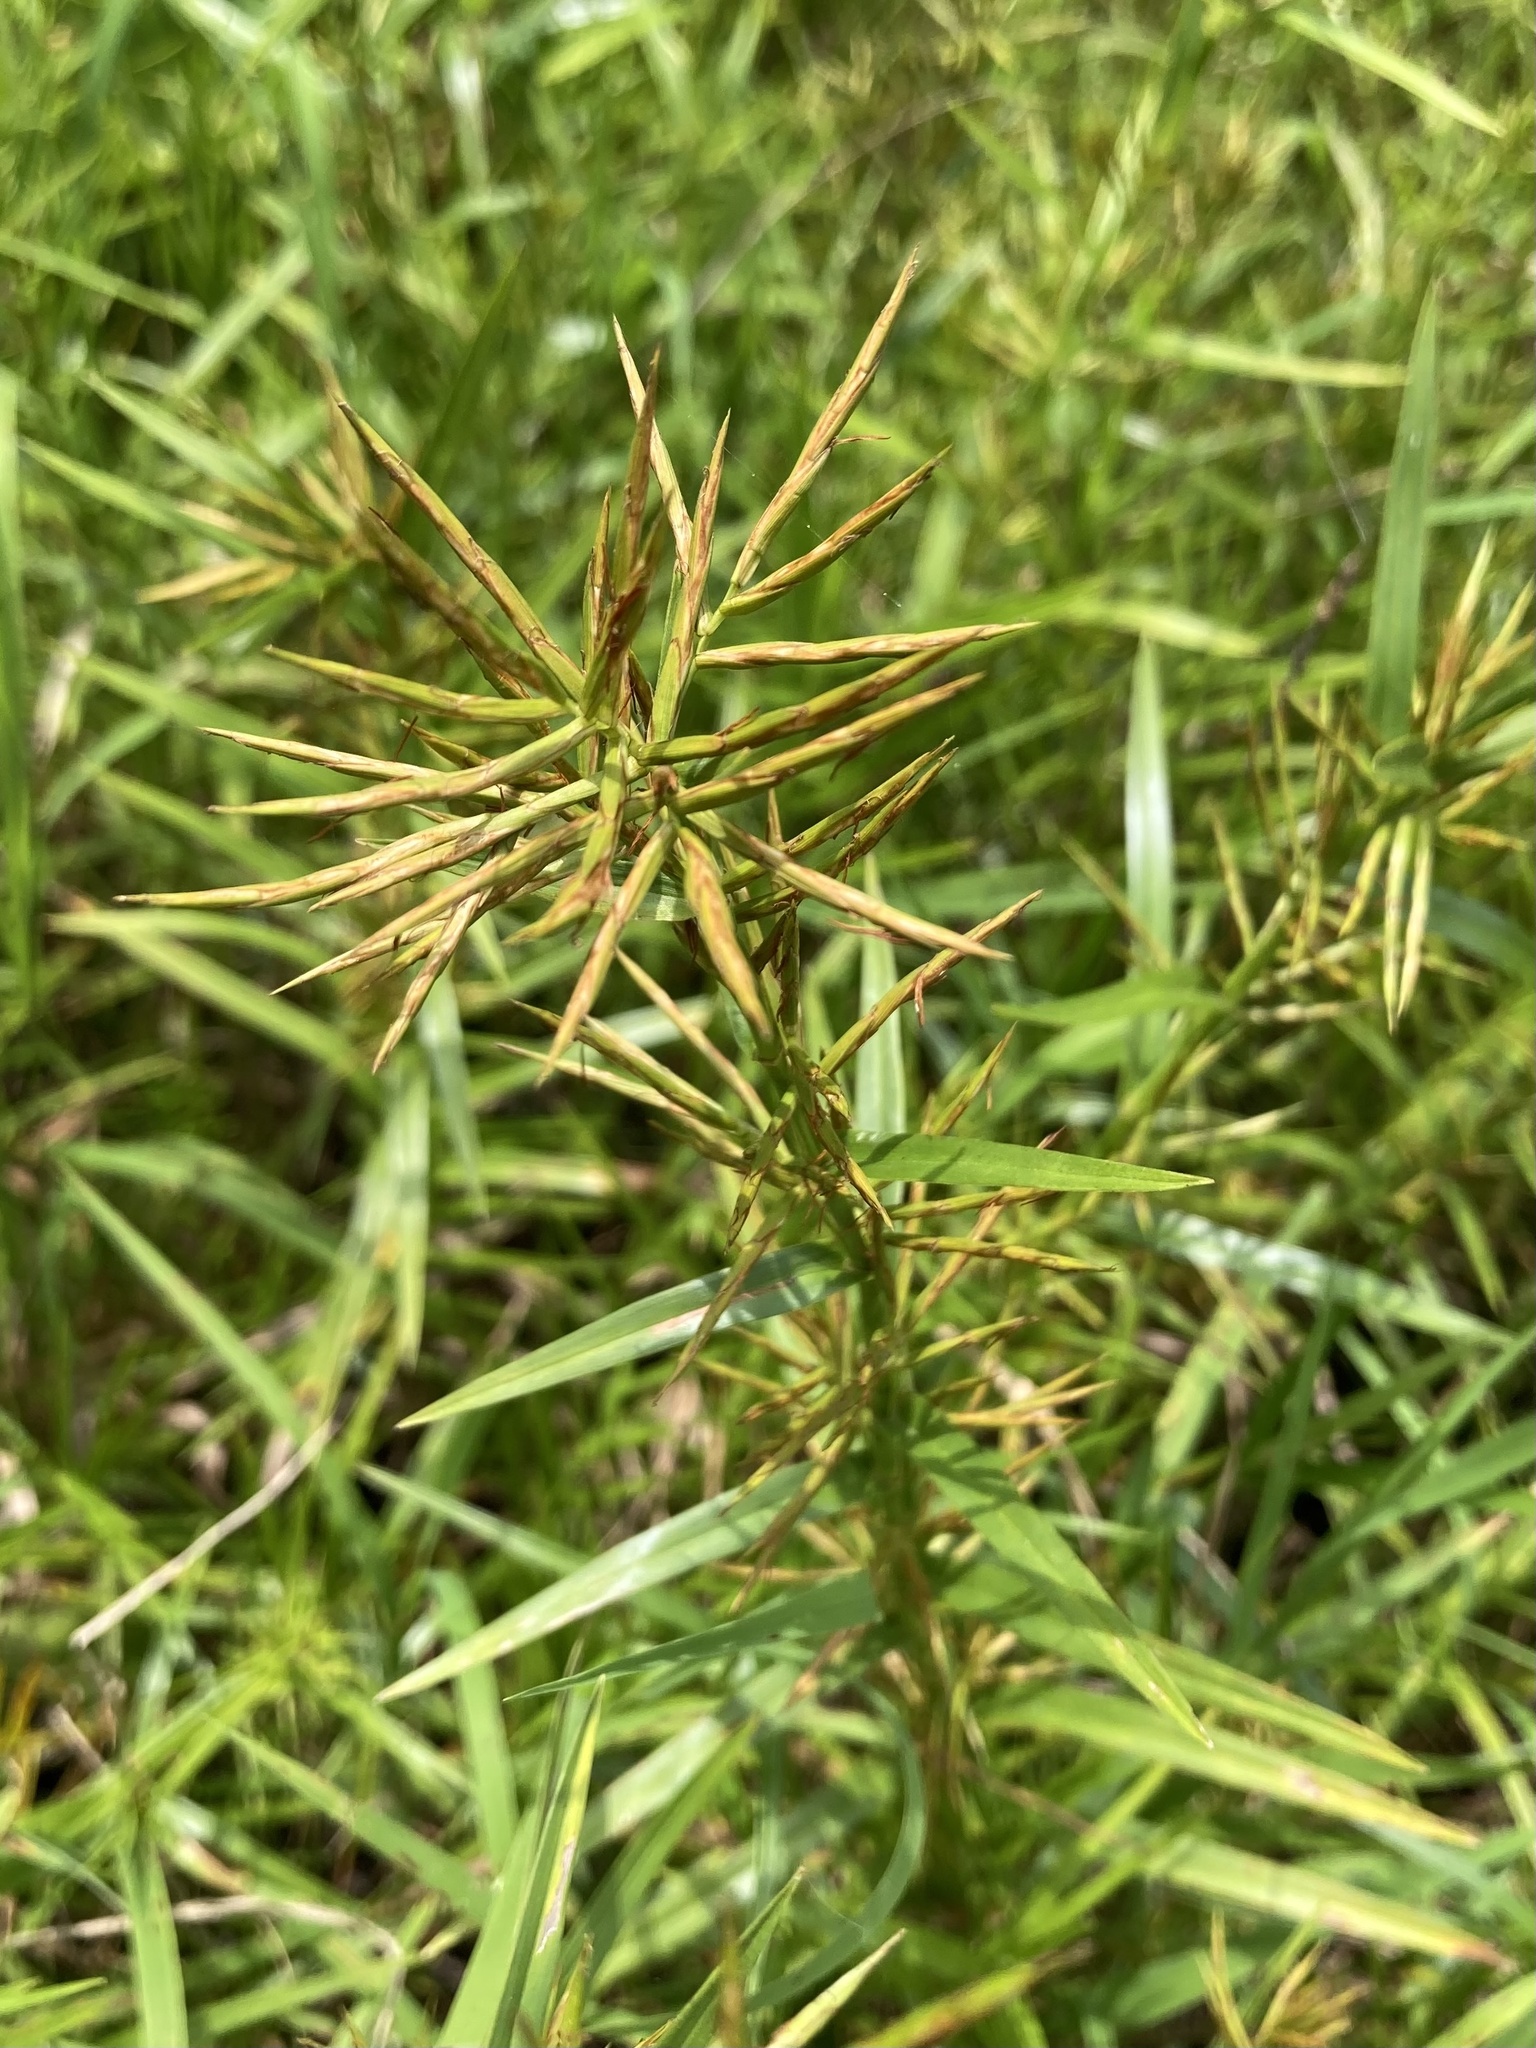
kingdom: Plantae
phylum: Tracheophyta
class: Liliopsida
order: Poales
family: Cyperaceae
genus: Dulichium
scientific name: Dulichium arundinaceum
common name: Three-way sedge
